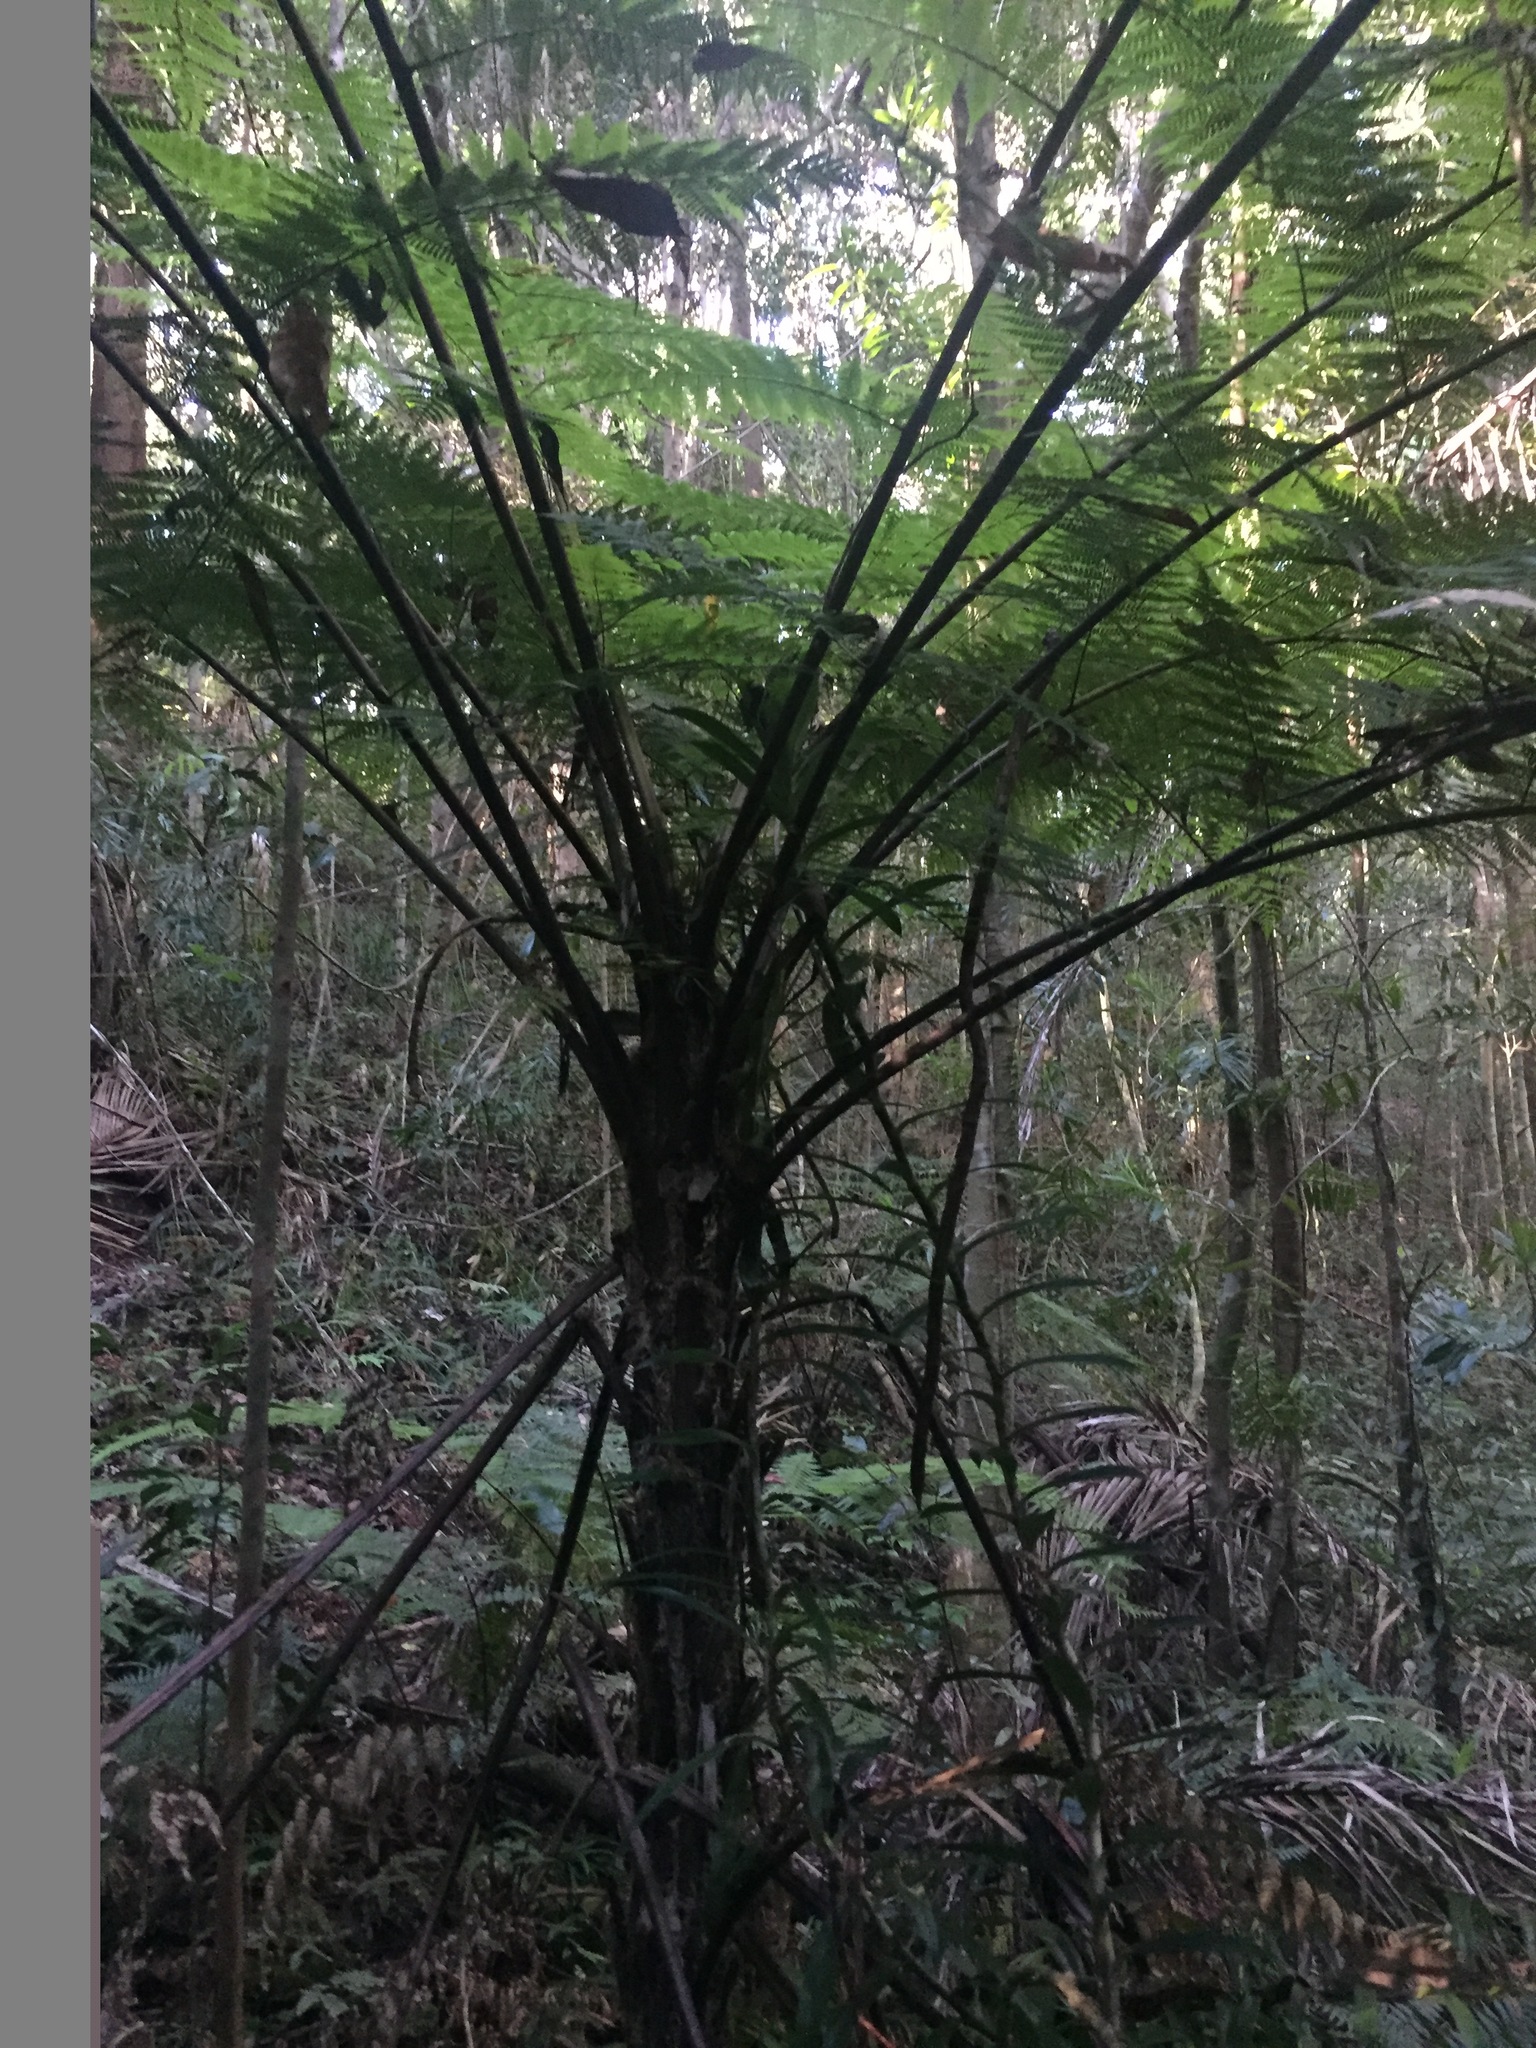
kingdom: Plantae
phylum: Tracheophyta
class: Polypodiopsida
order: Cyatheales
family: Cyatheaceae
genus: Alsophila
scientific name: Alsophila leichhardtiana
